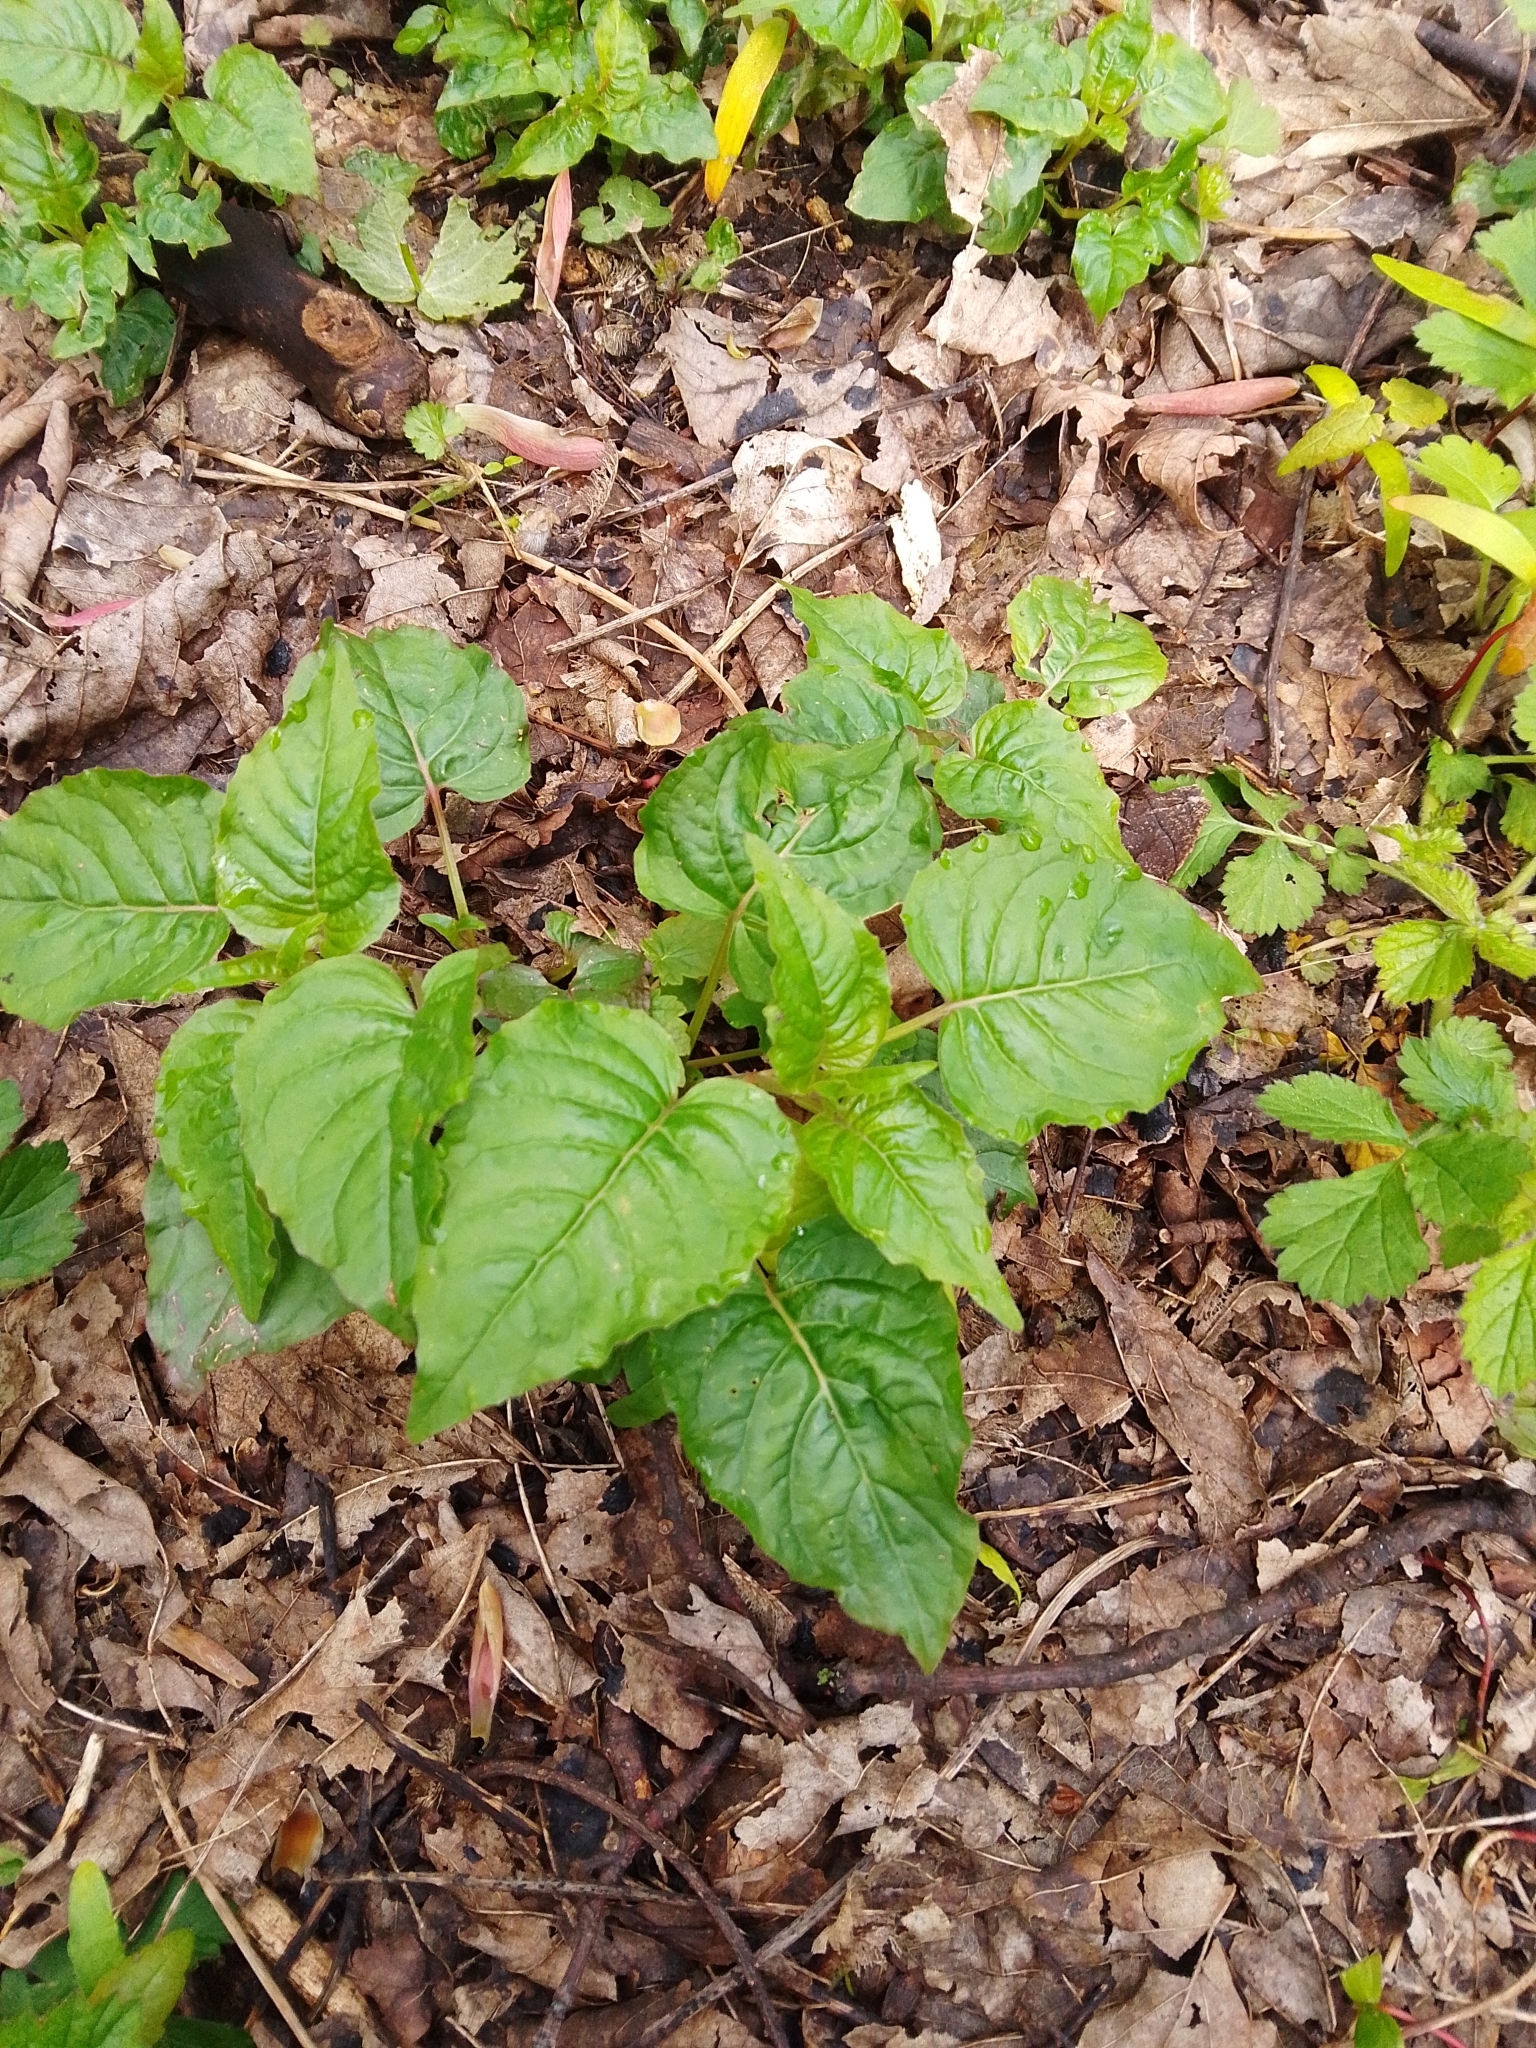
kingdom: Plantae
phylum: Tracheophyta
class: Magnoliopsida
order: Myrtales
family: Onagraceae
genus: Circaea
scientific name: Circaea lutetiana
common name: Enchanter's-nightshade
